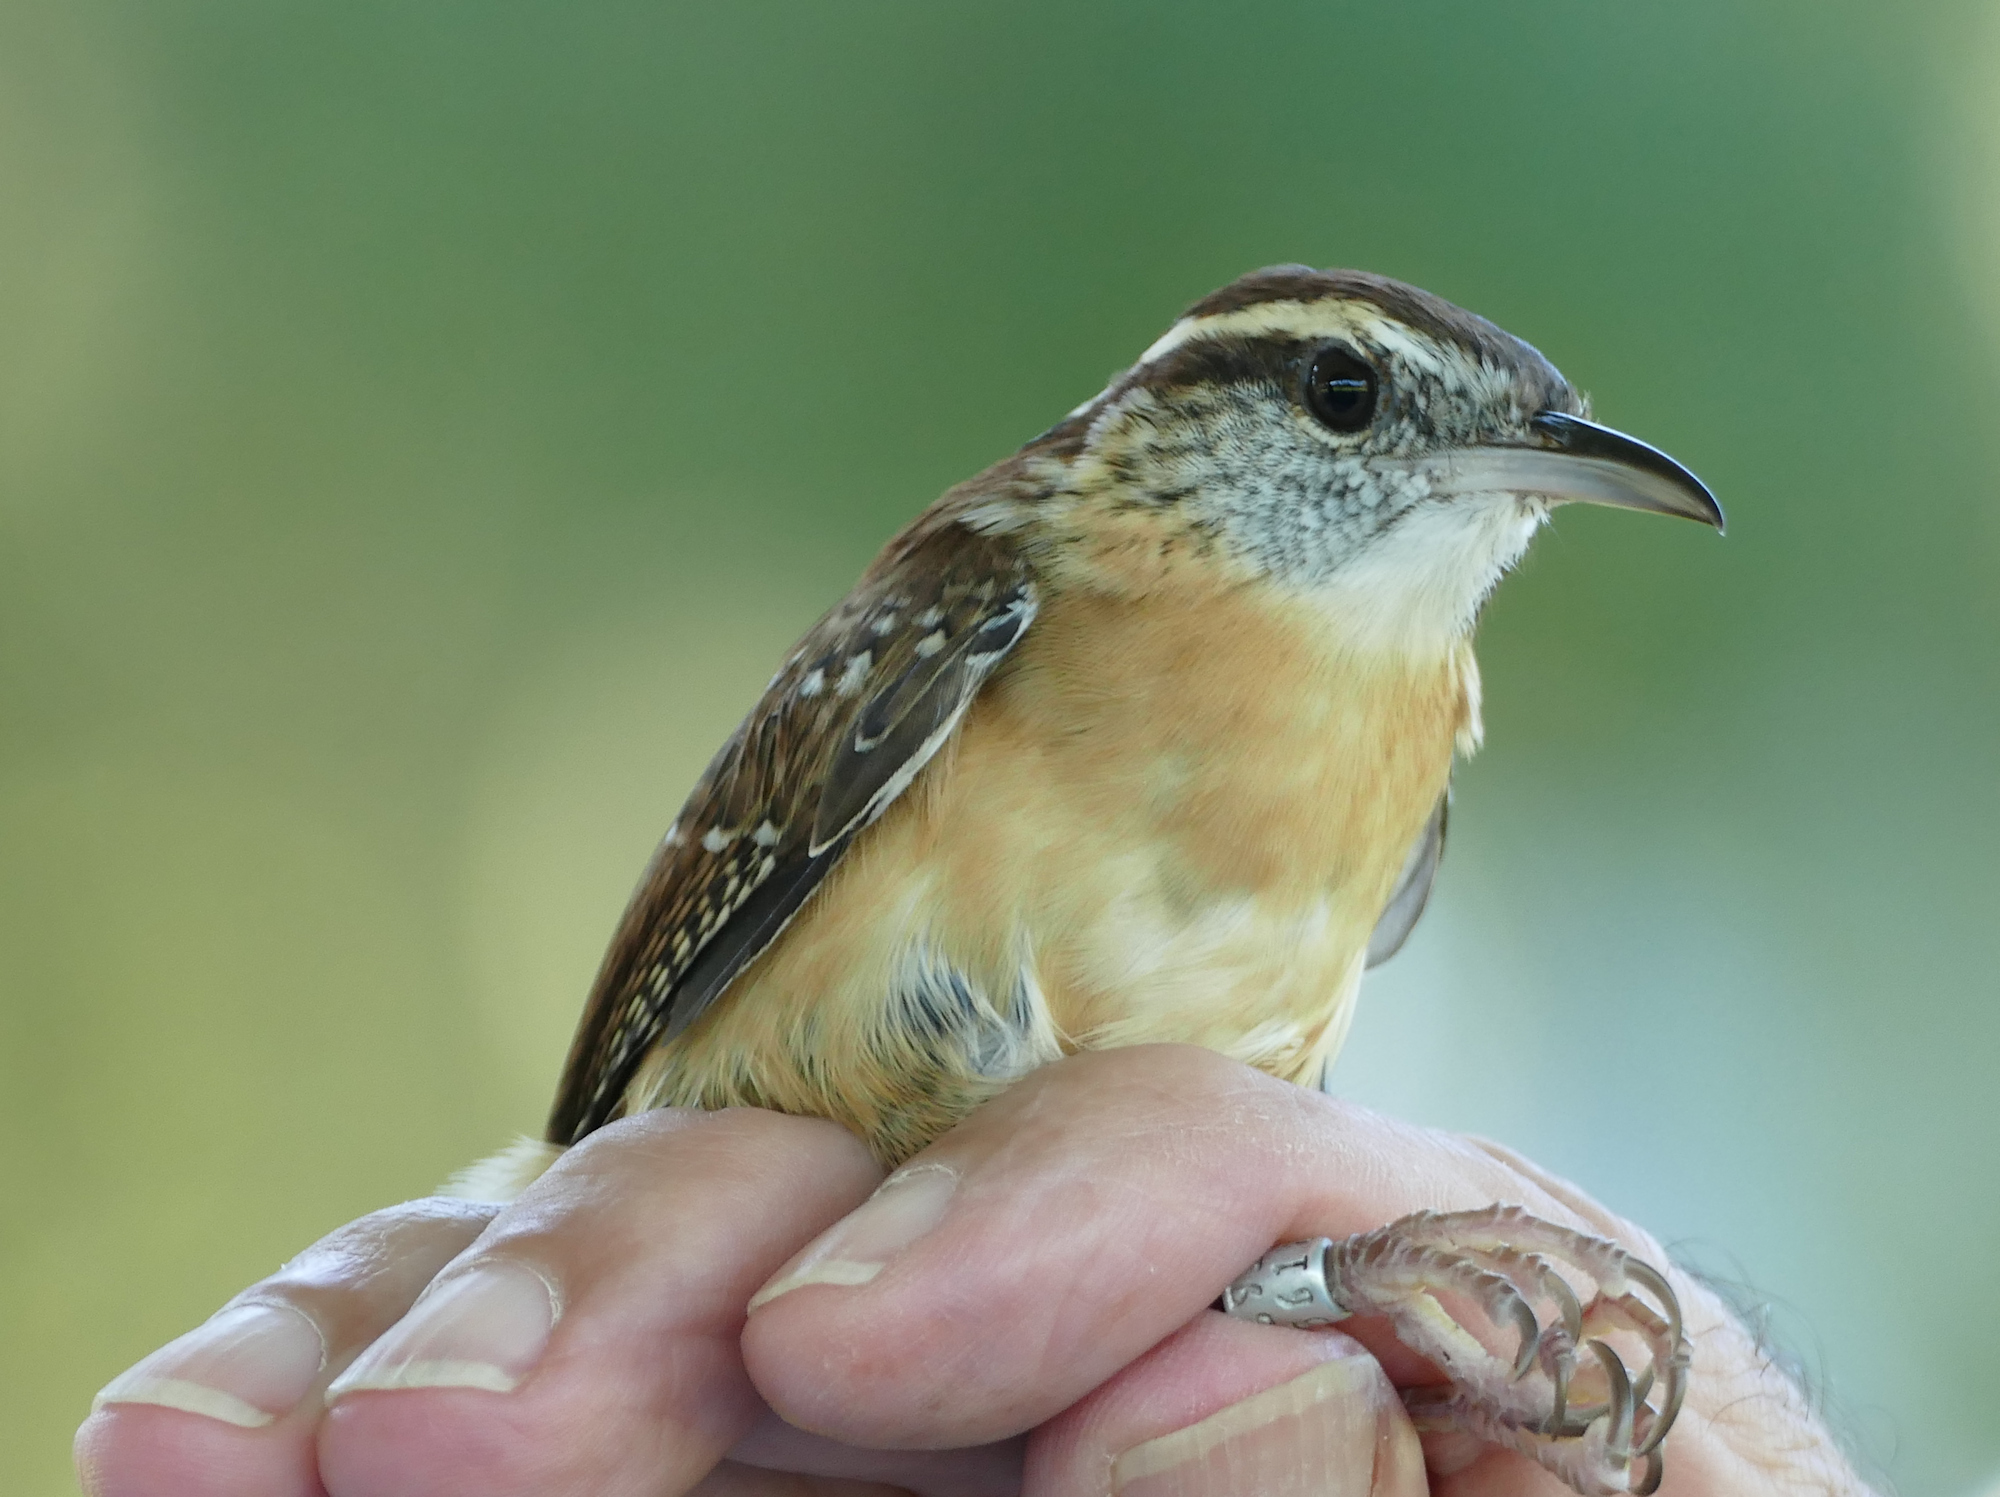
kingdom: Animalia
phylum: Chordata
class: Aves
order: Passeriformes
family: Troglodytidae
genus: Thryothorus
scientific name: Thryothorus ludovicianus
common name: Carolina wren
